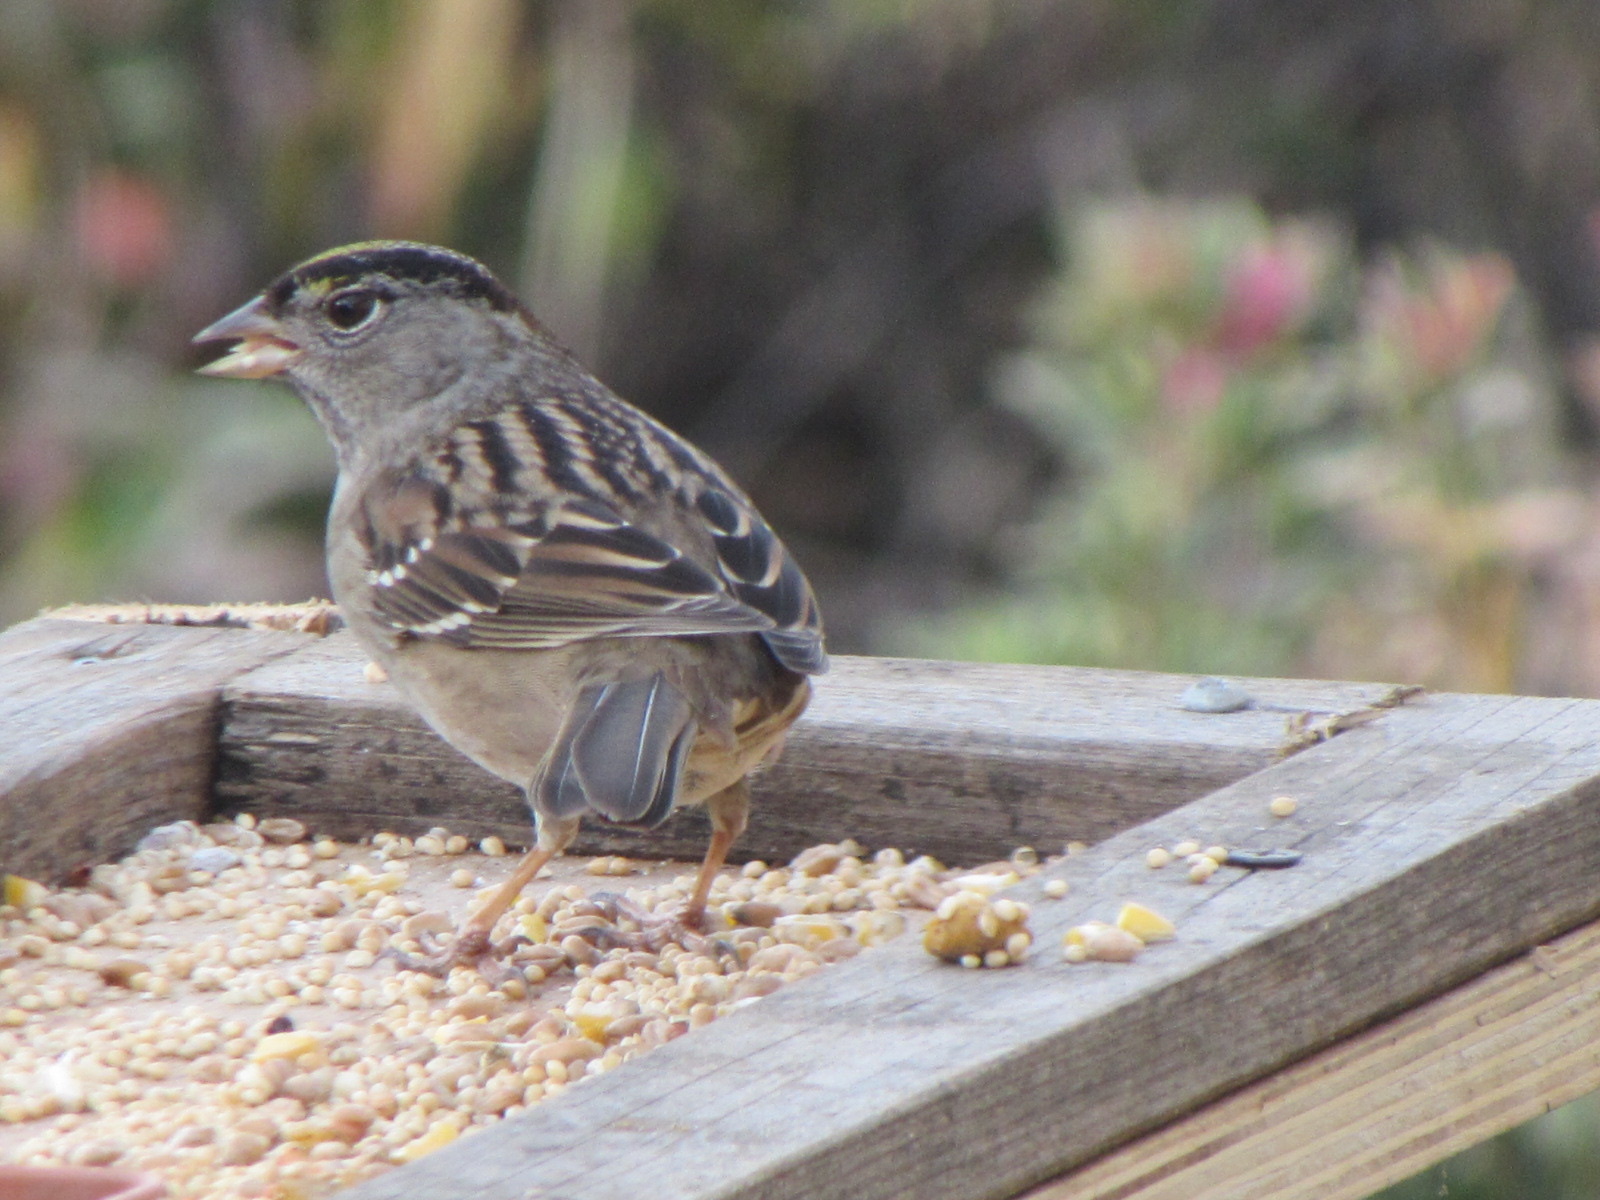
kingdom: Animalia
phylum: Chordata
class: Aves
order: Passeriformes
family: Passerellidae
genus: Zonotrichia
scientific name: Zonotrichia atricapilla
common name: Golden-crowned sparrow
